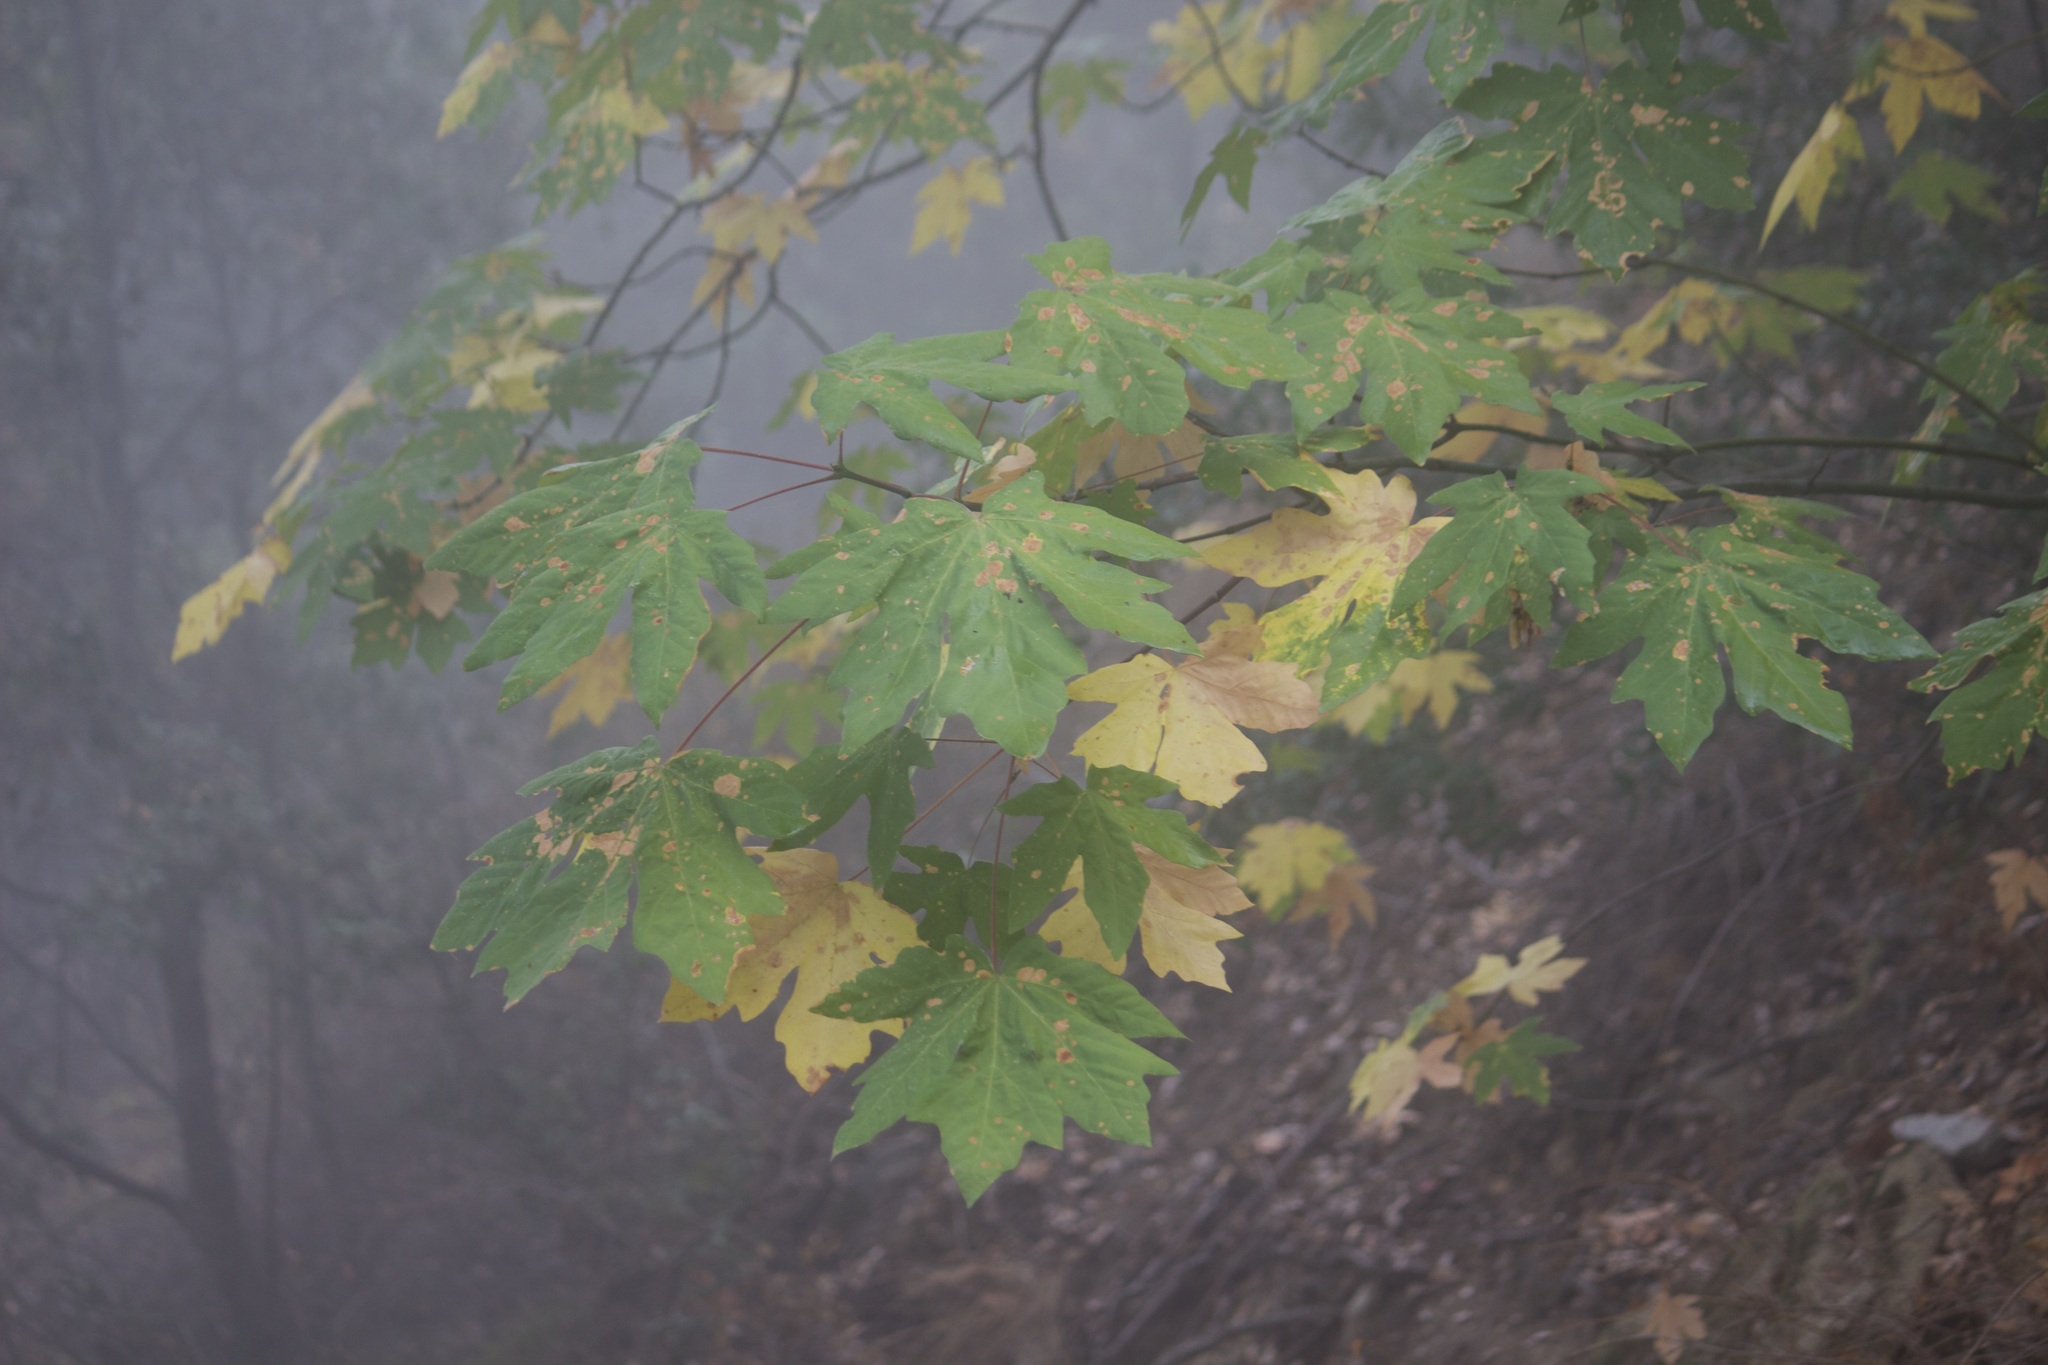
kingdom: Plantae
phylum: Tracheophyta
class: Magnoliopsida
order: Sapindales
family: Sapindaceae
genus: Acer
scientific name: Acer macrophyllum
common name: Oregon maple
